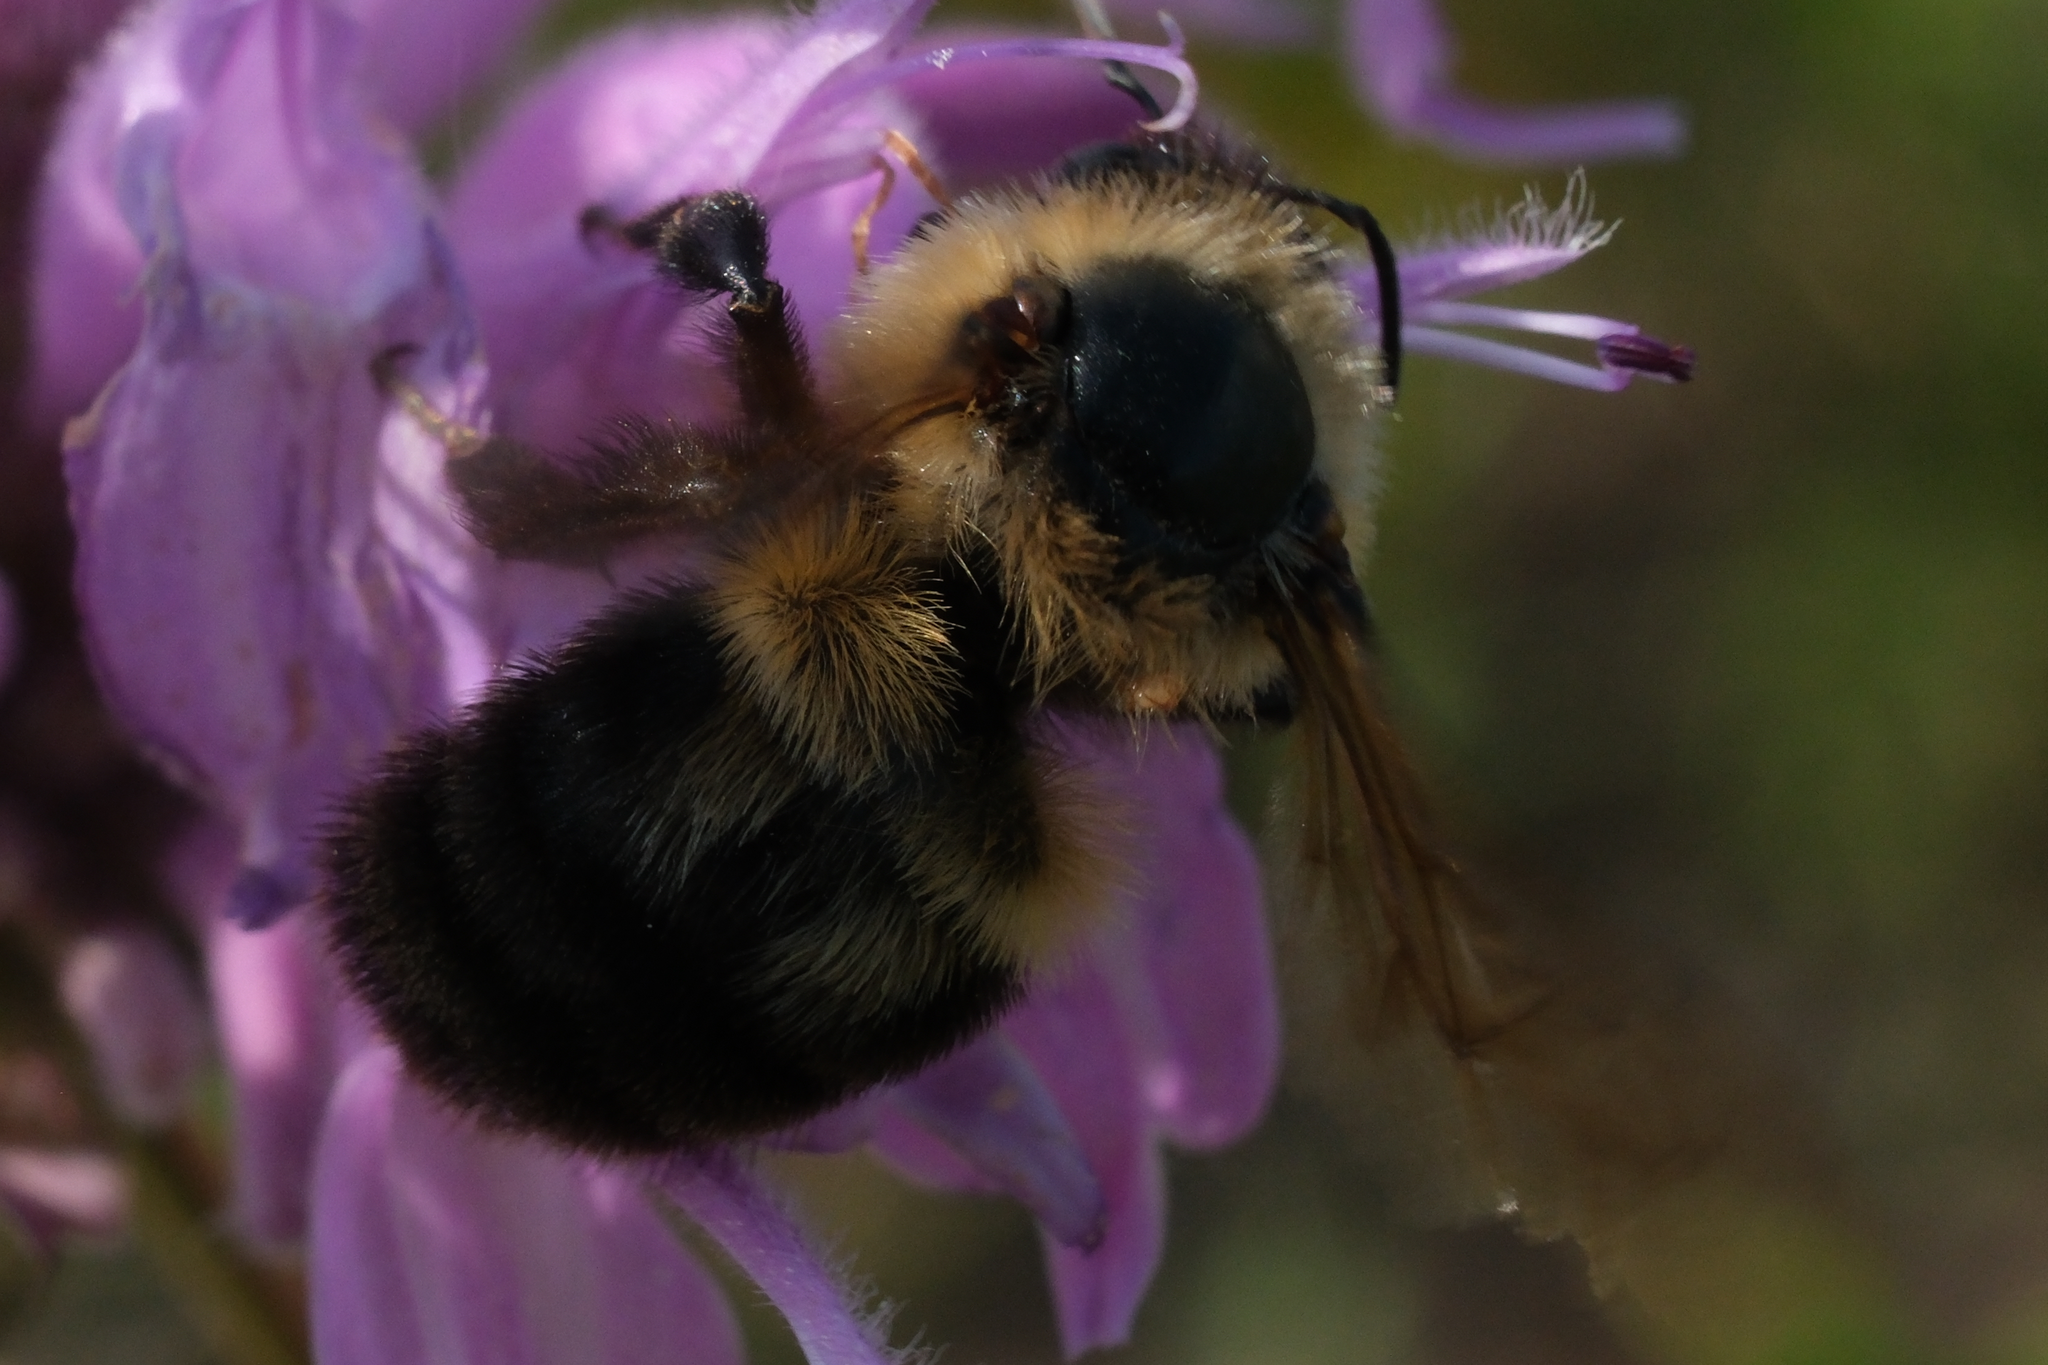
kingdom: Animalia
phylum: Arthropoda
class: Insecta
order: Hymenoptera
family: Apidae
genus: Bombus
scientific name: Bombus bimaculatus
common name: Two-spotted bumble bee
